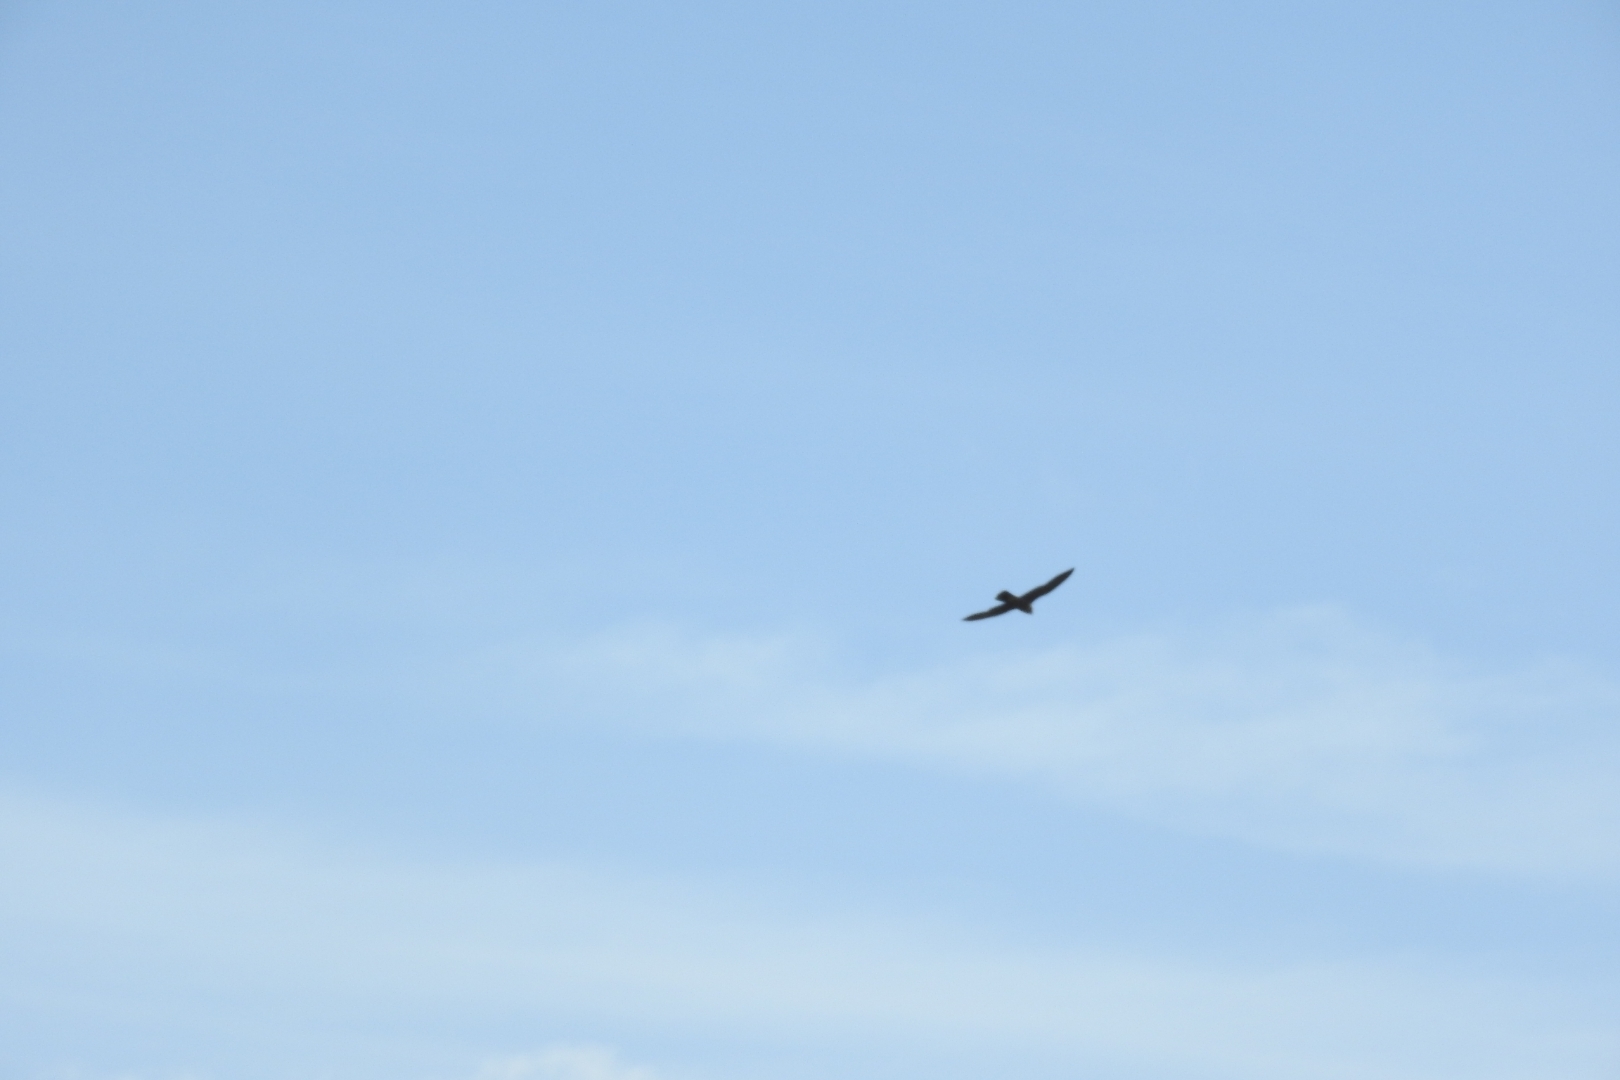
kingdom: Animalia
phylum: Chordata
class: Aves
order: Falconiformes
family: Falconidae
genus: Falco
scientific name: Falco peregrinus
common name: Peregrine falcon
